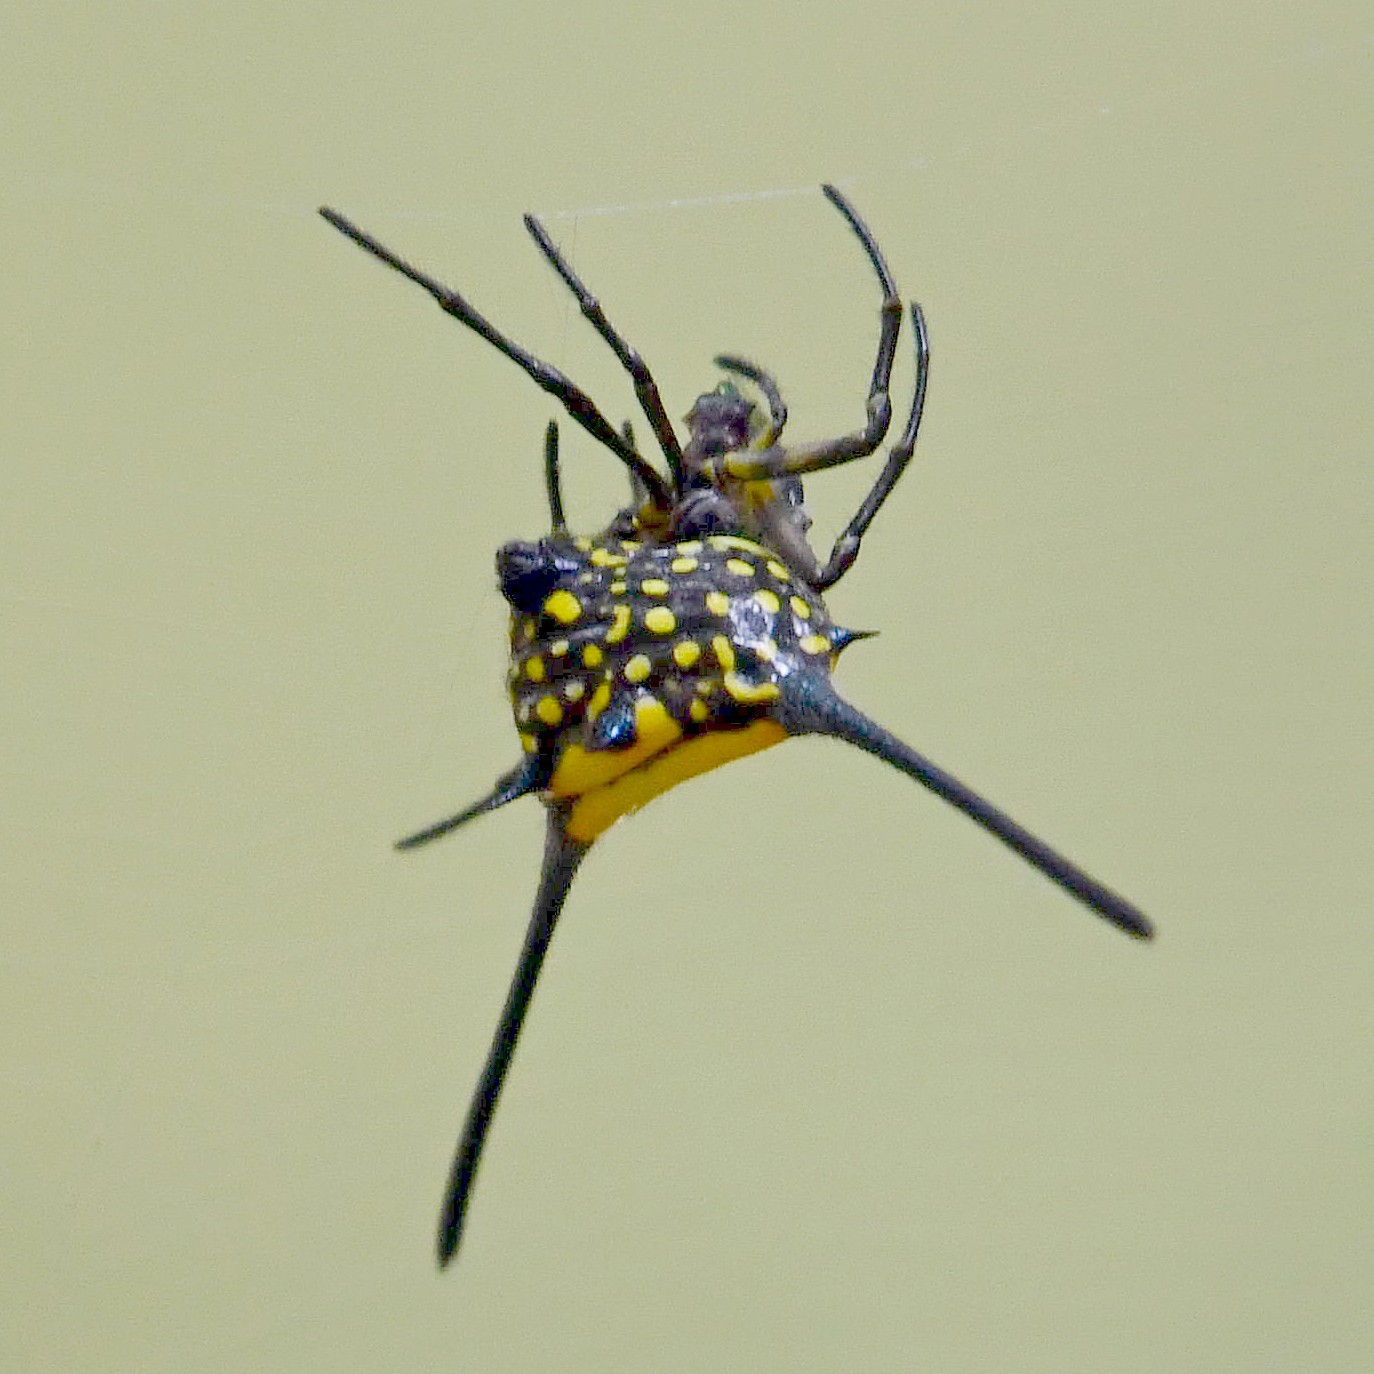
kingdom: Animalia
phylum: Arthropoda
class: Arachnida
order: Araneae
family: Araneidae
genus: Gasteracantha
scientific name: Gasteracantha dalyi
